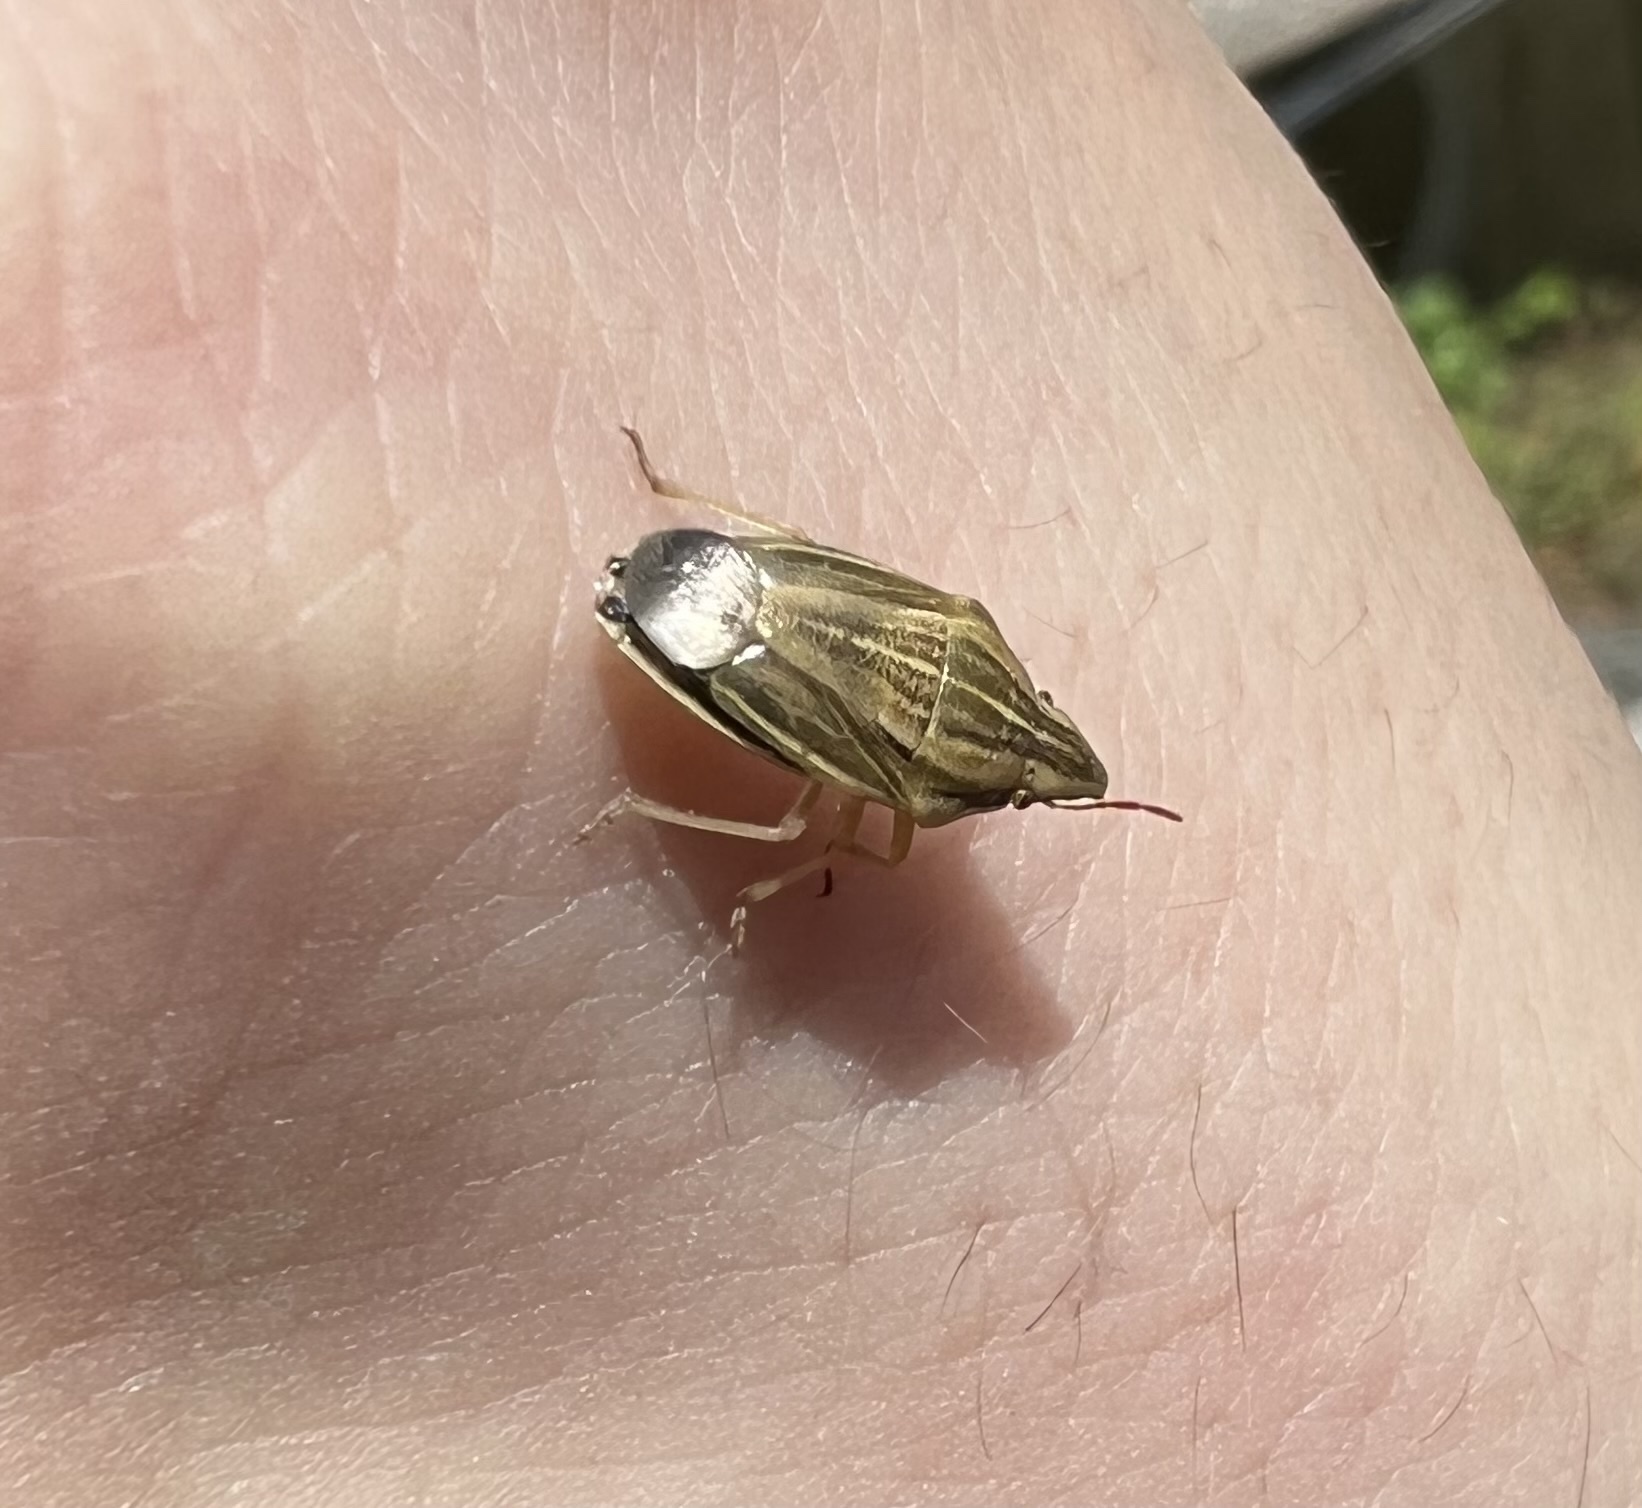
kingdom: Animalia
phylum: Arthropoda
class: Insecta
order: Hemiptera
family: Pentatomidae
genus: Aelia
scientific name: Aelia acuminata
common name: Bishop's mitre
